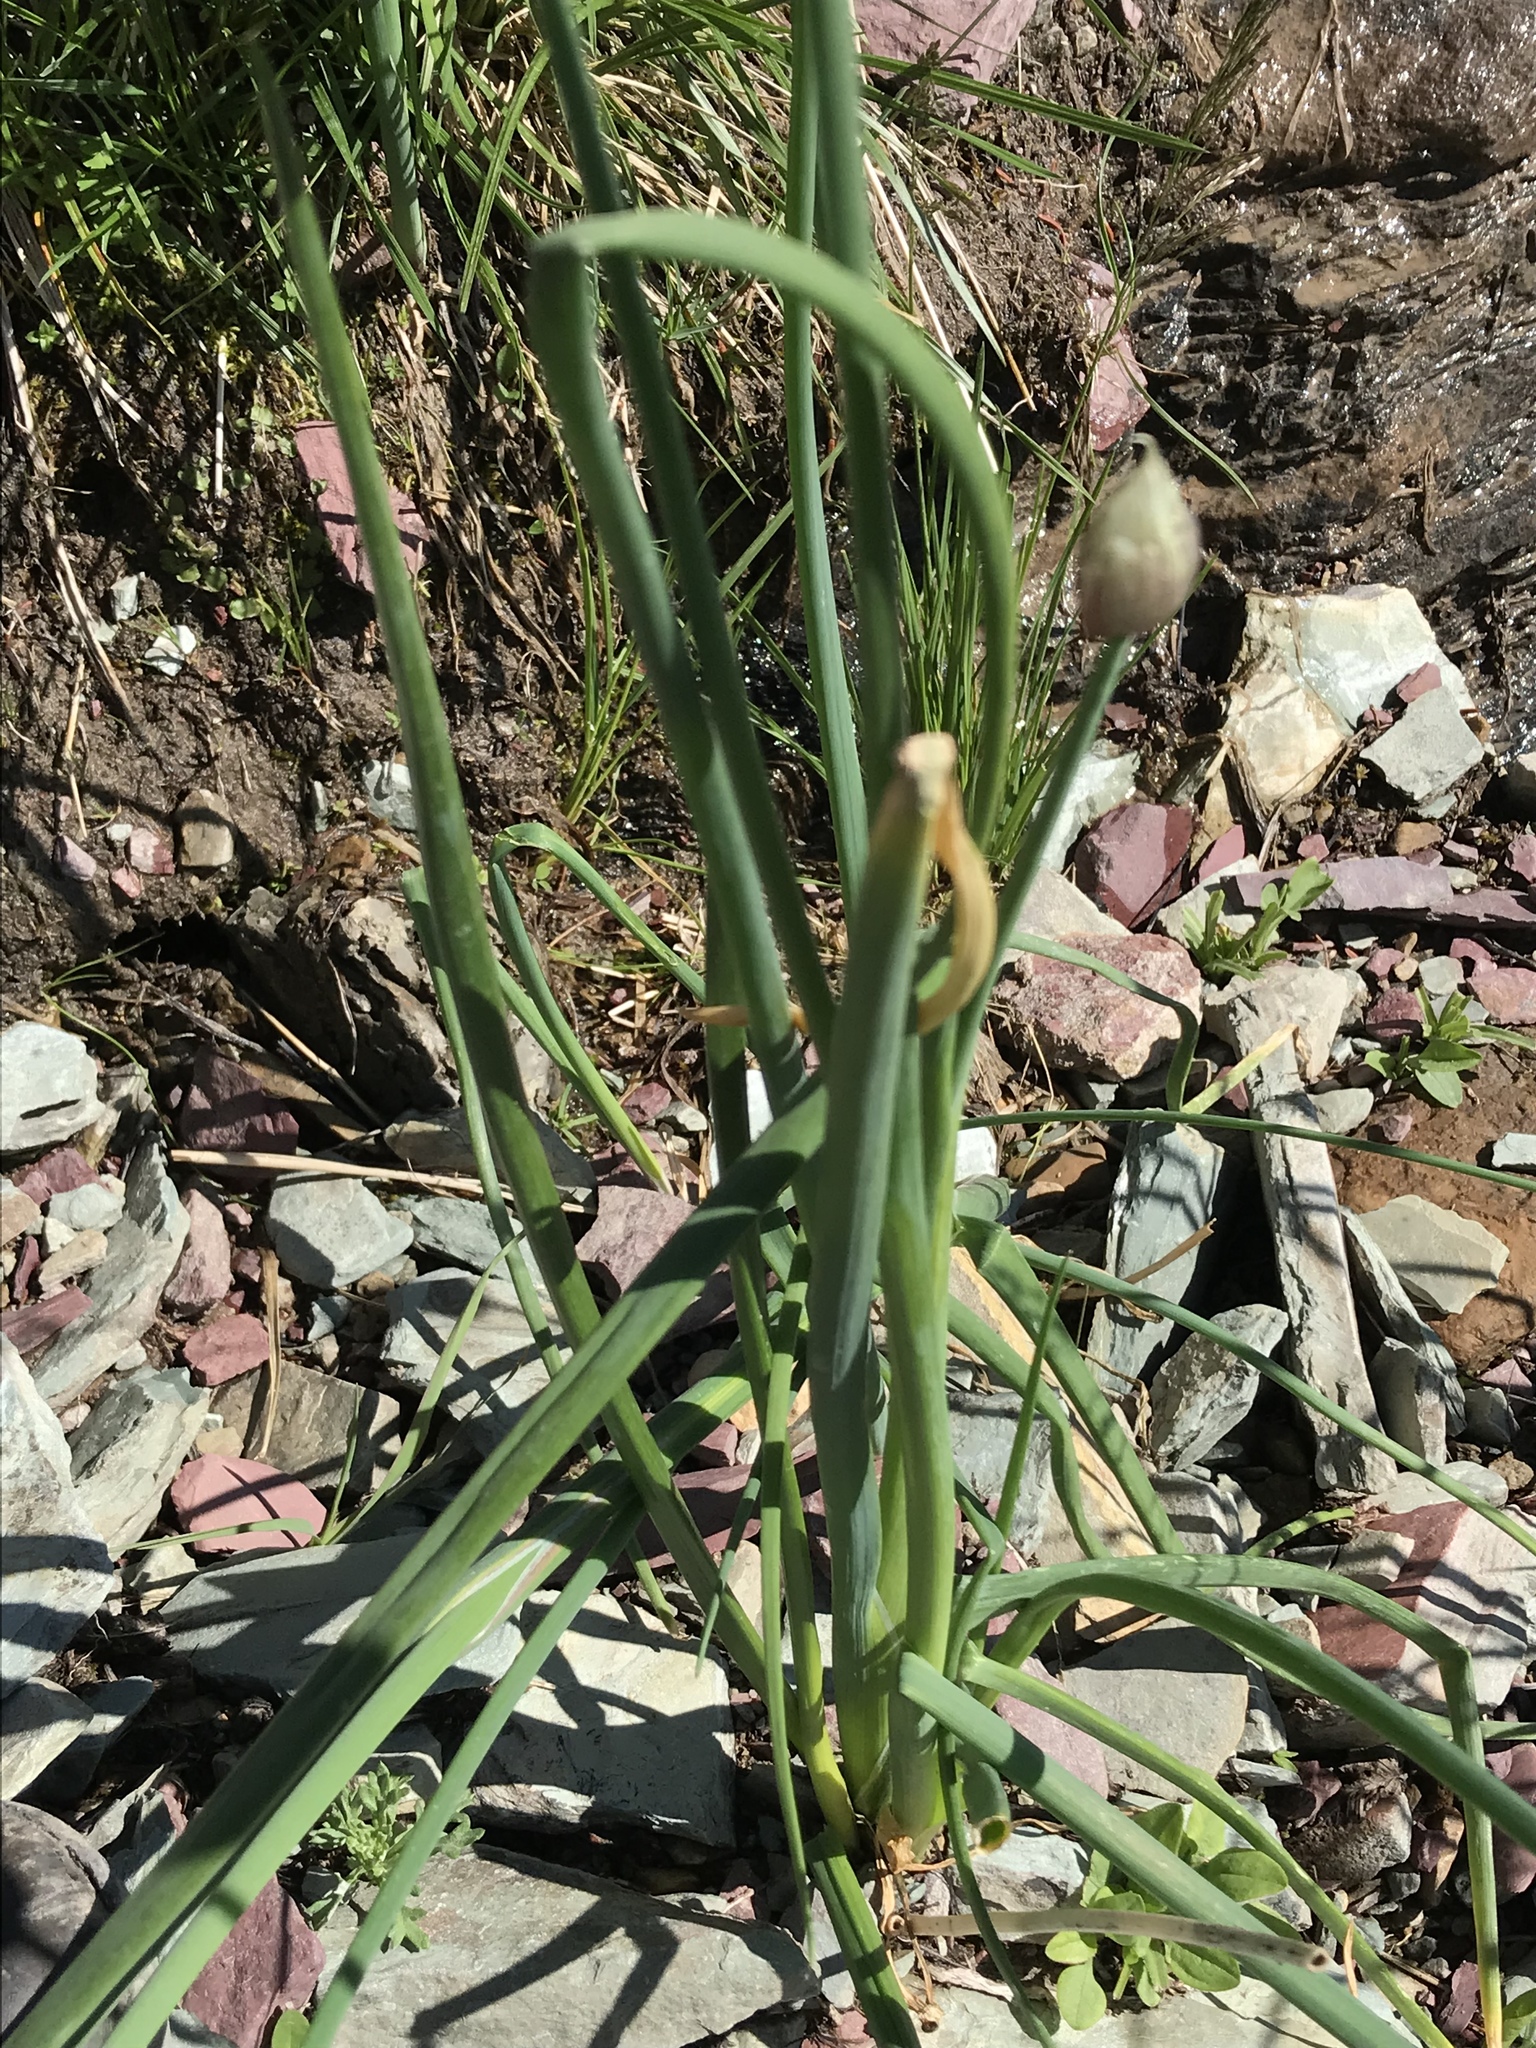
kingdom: Plantae
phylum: Tracheophyta
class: Liliopsida
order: Asparagales
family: Amaryllidaceae
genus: Allium
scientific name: Allium schoenoprasum
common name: Chives
